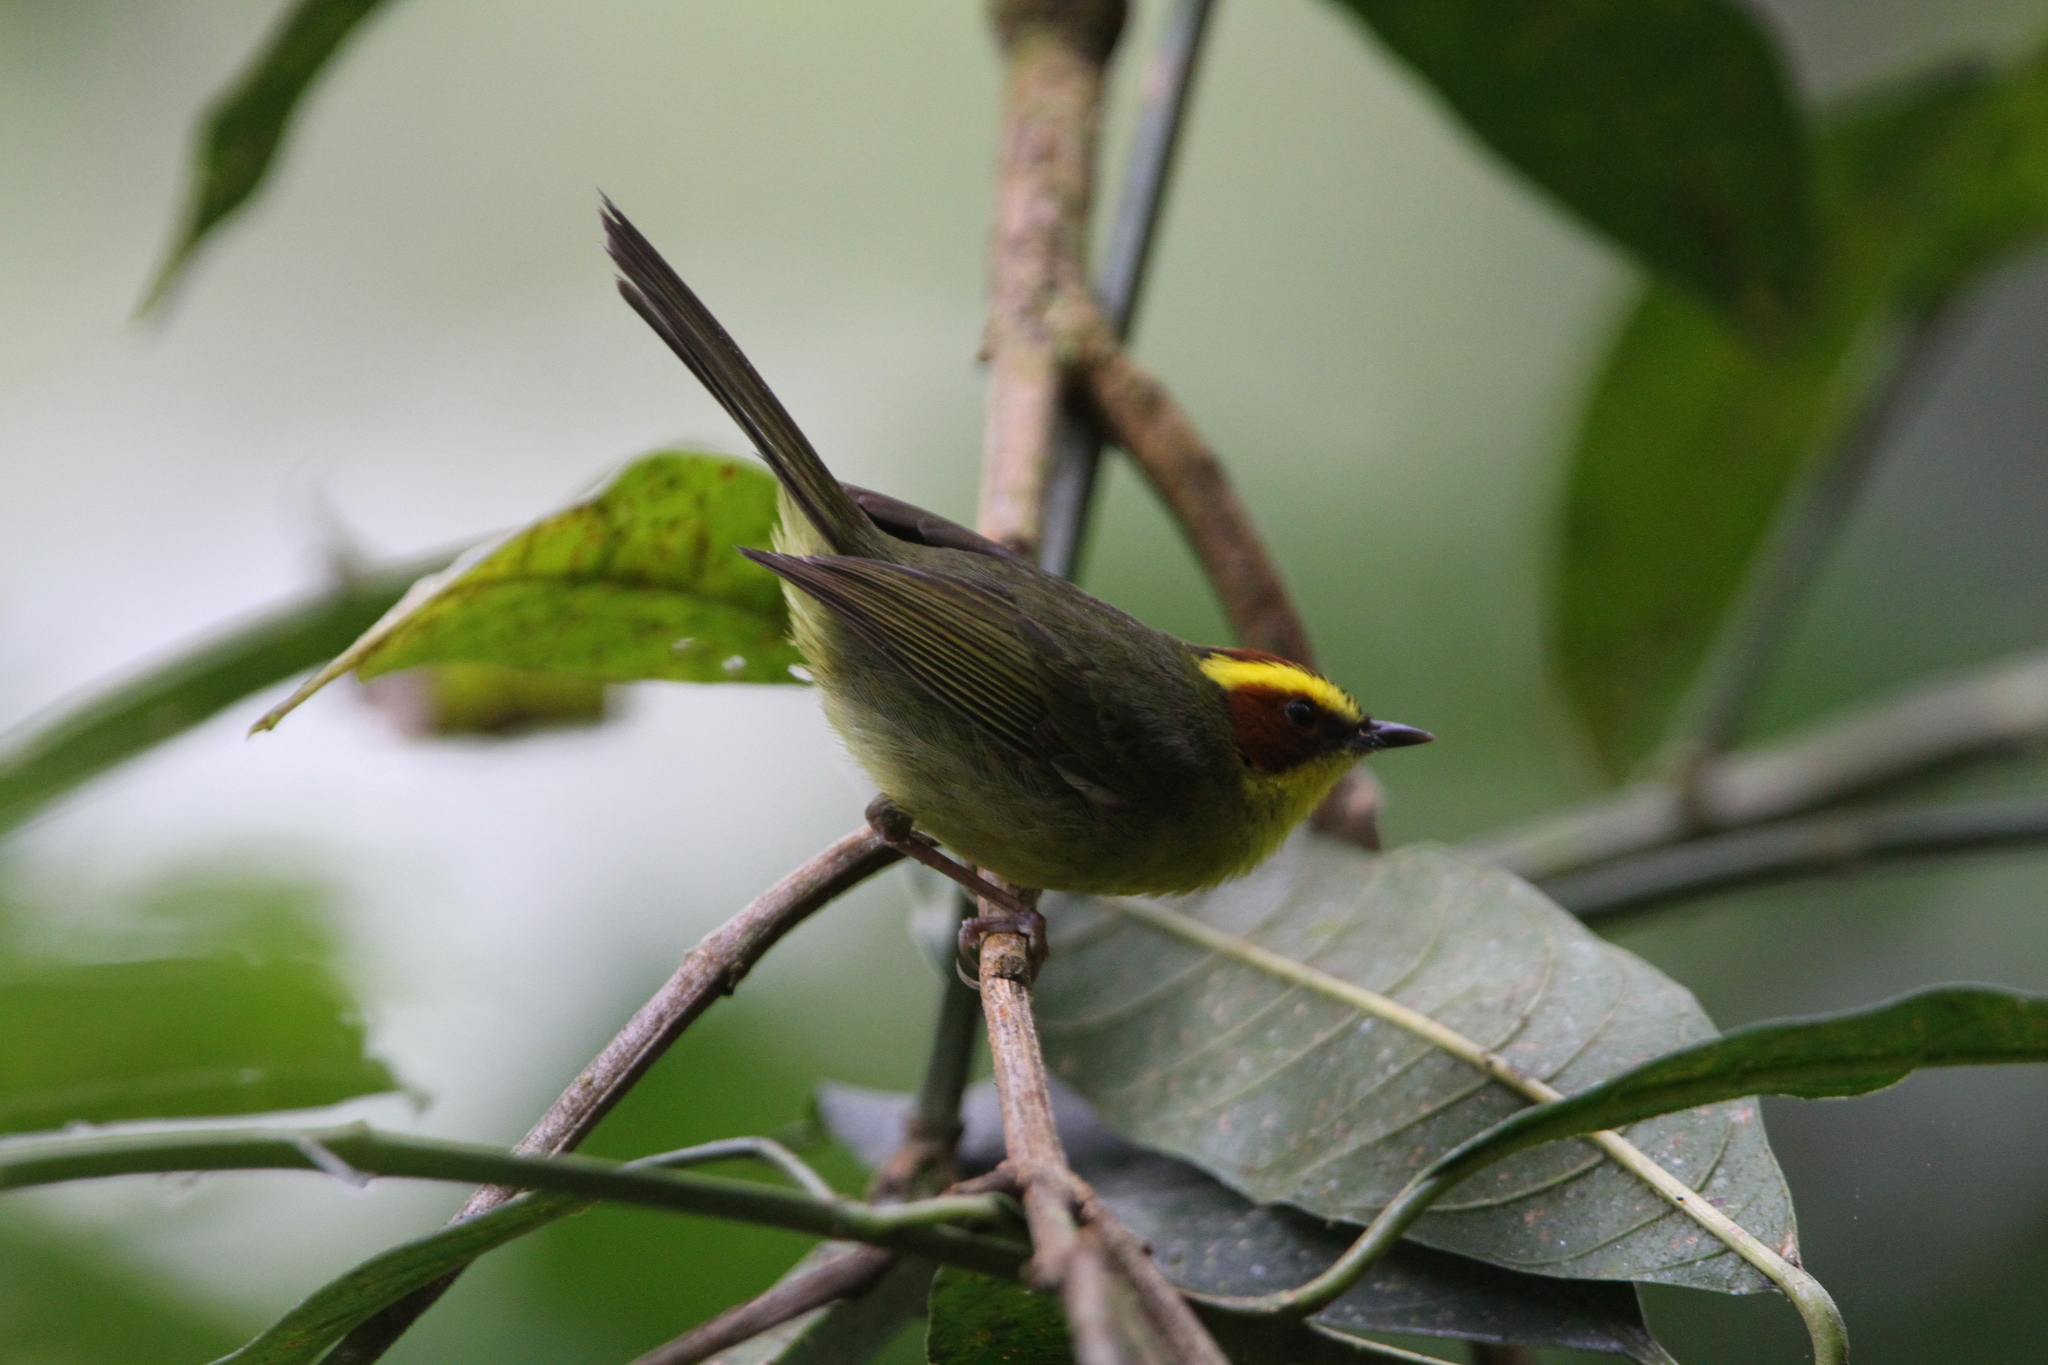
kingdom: Animalia
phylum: Chordata
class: Aves
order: Passeriformes
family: Parulidae
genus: Basileuterus
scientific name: Basileuterus belli
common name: Golden-browed warbler
